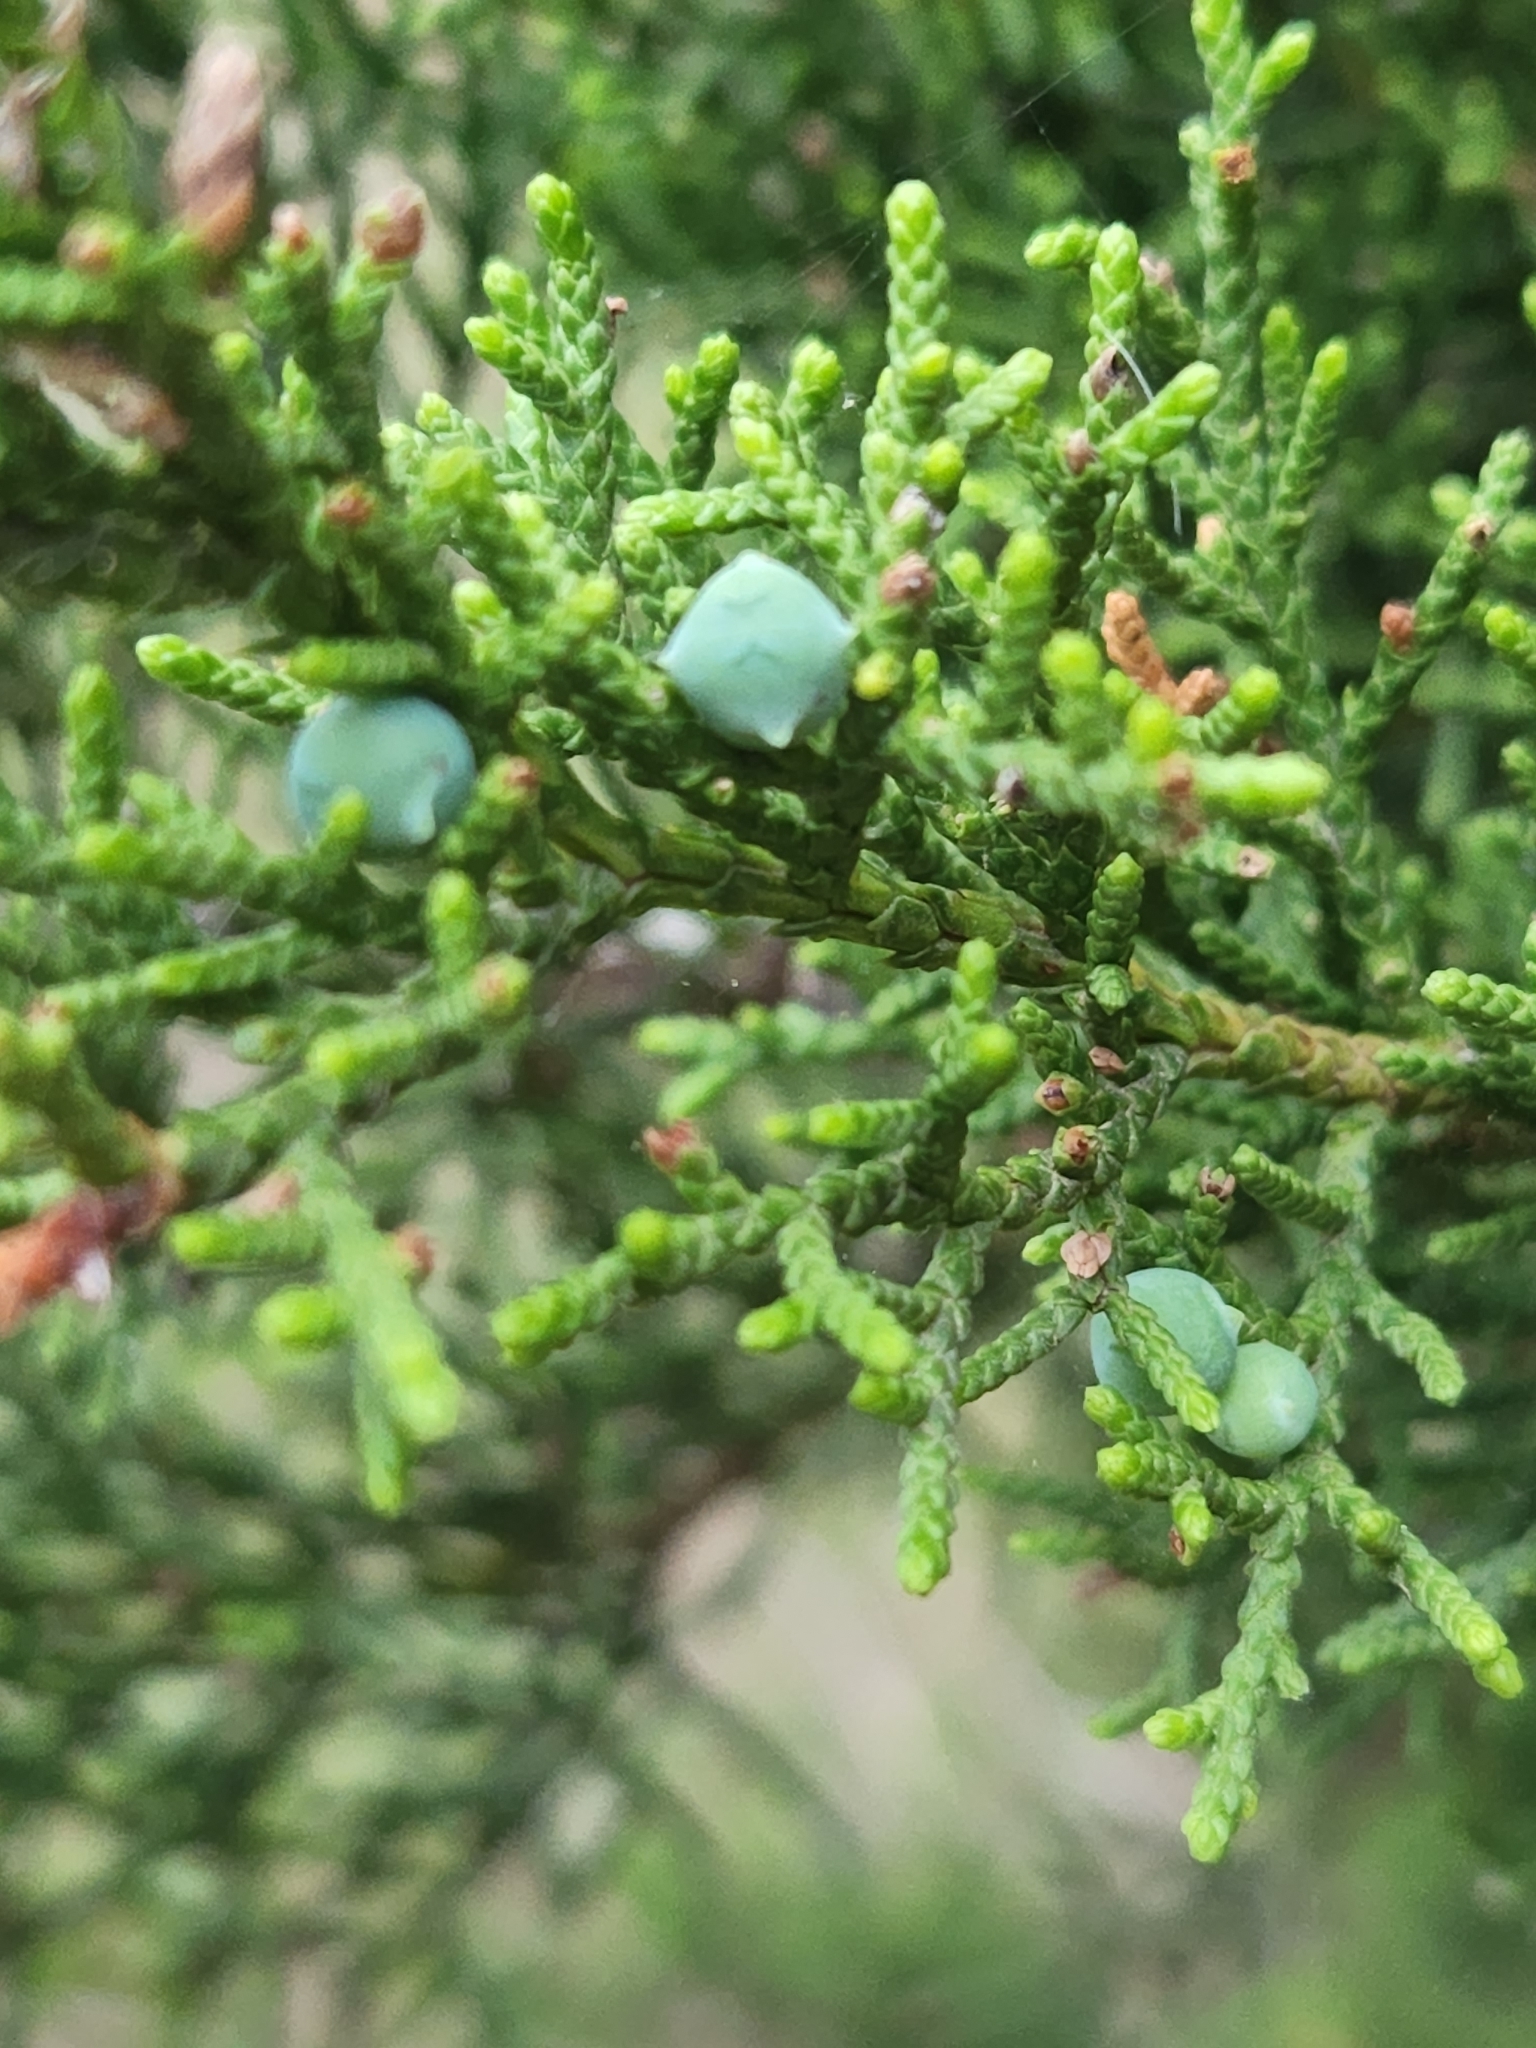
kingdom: Plantae
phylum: Tracheophyta
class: Pinopsida
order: Pinales
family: Cupressaceae
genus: Juniperus
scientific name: Juniperus ashei
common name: Mexican juniper
